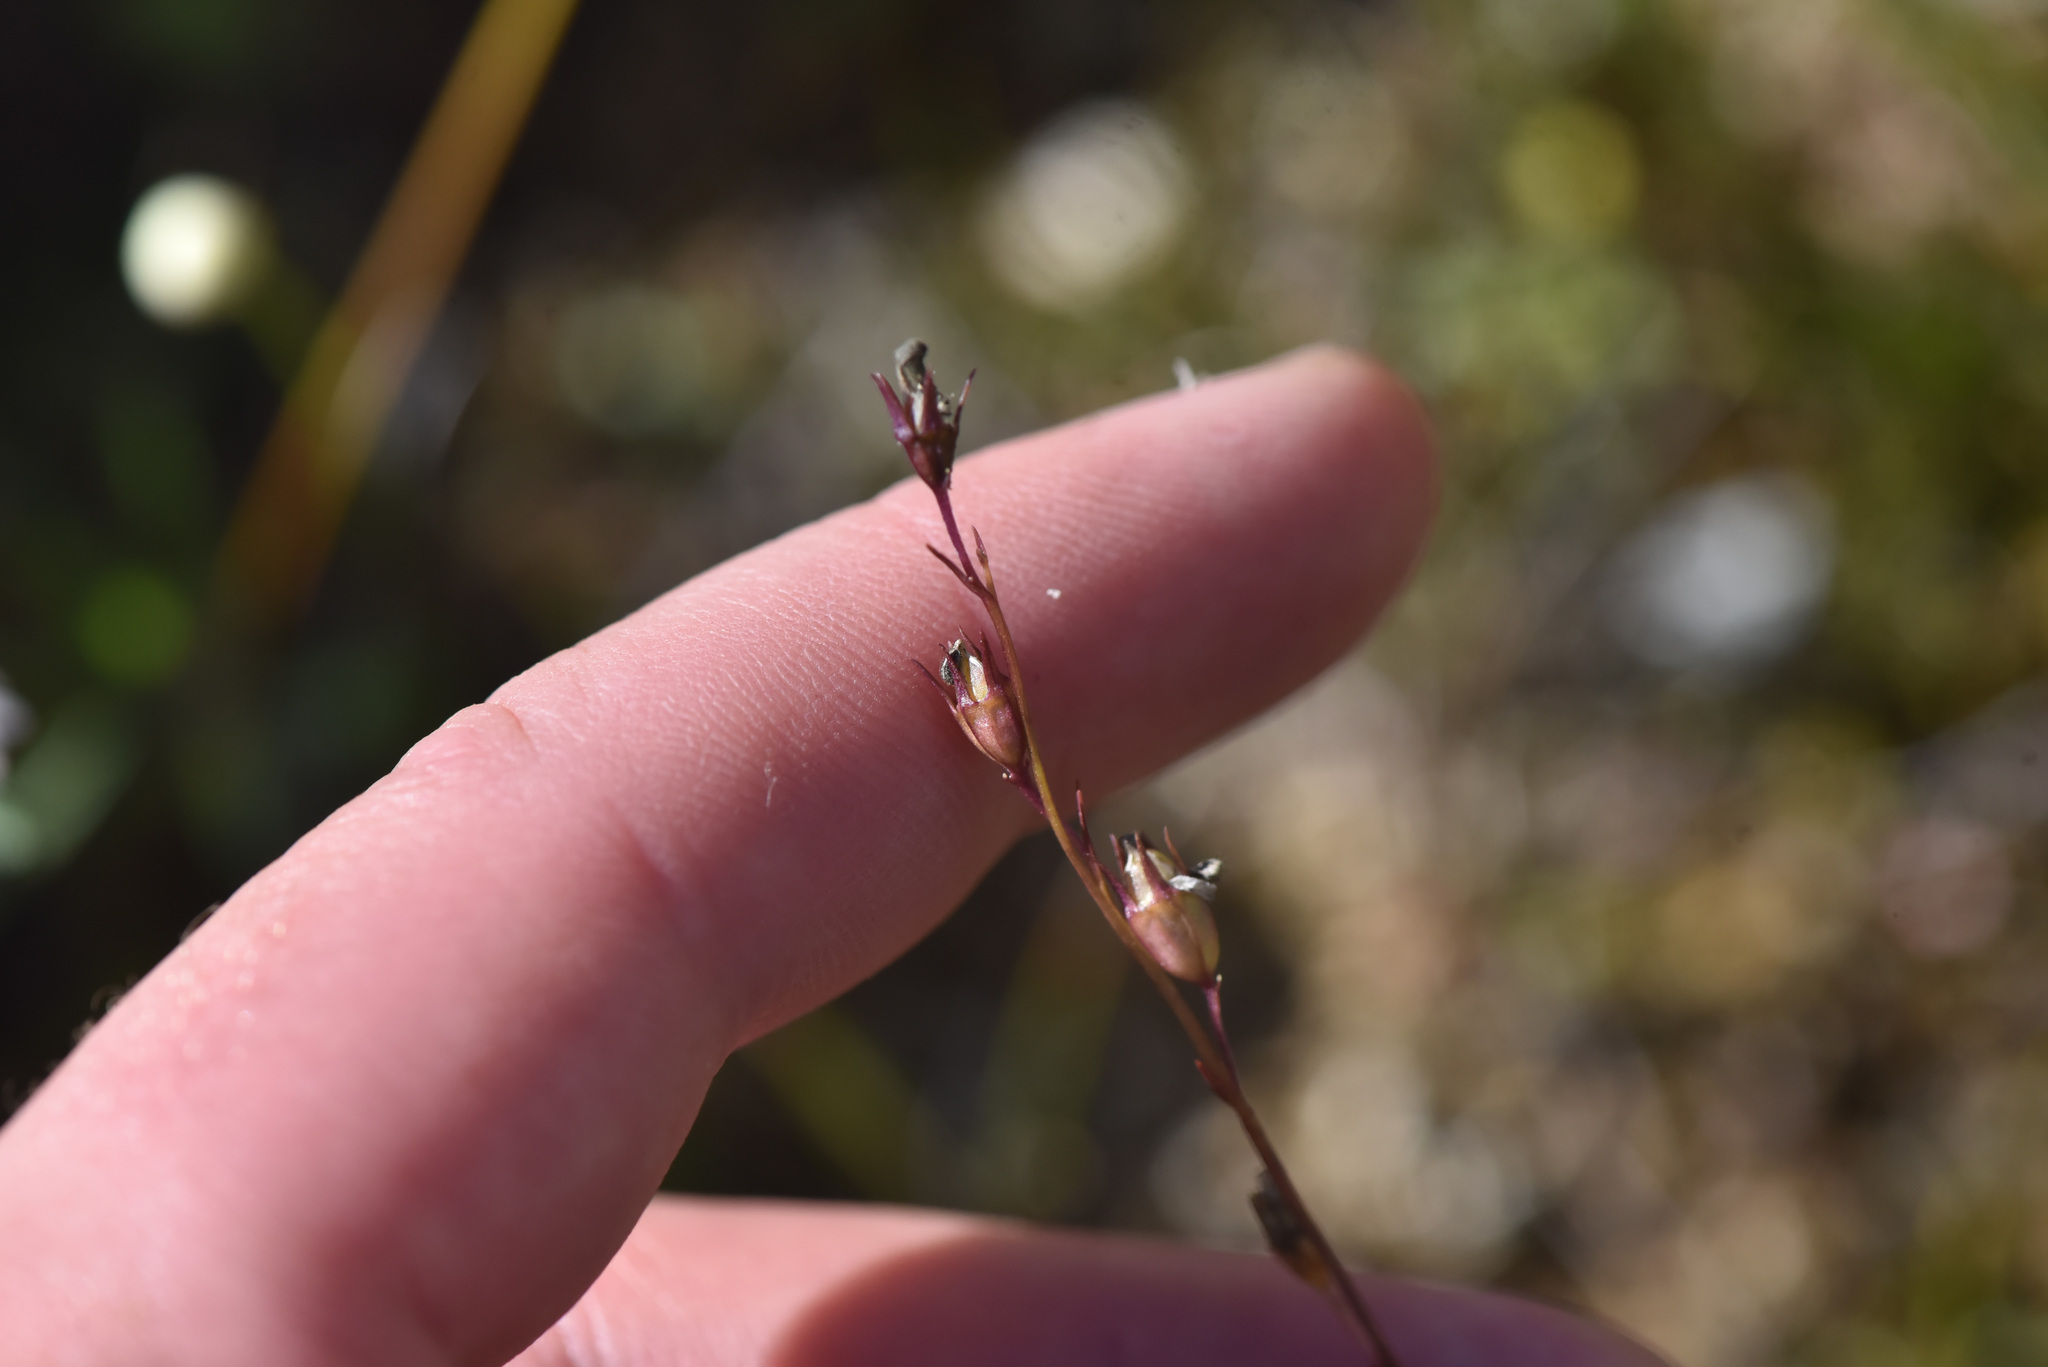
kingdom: Plantae
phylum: Tracheophyta
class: Magnoliopsida
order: Asterales
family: Campanulaceae
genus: Lobelia
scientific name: Lobelia kalmii
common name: Kalm's lobelia
